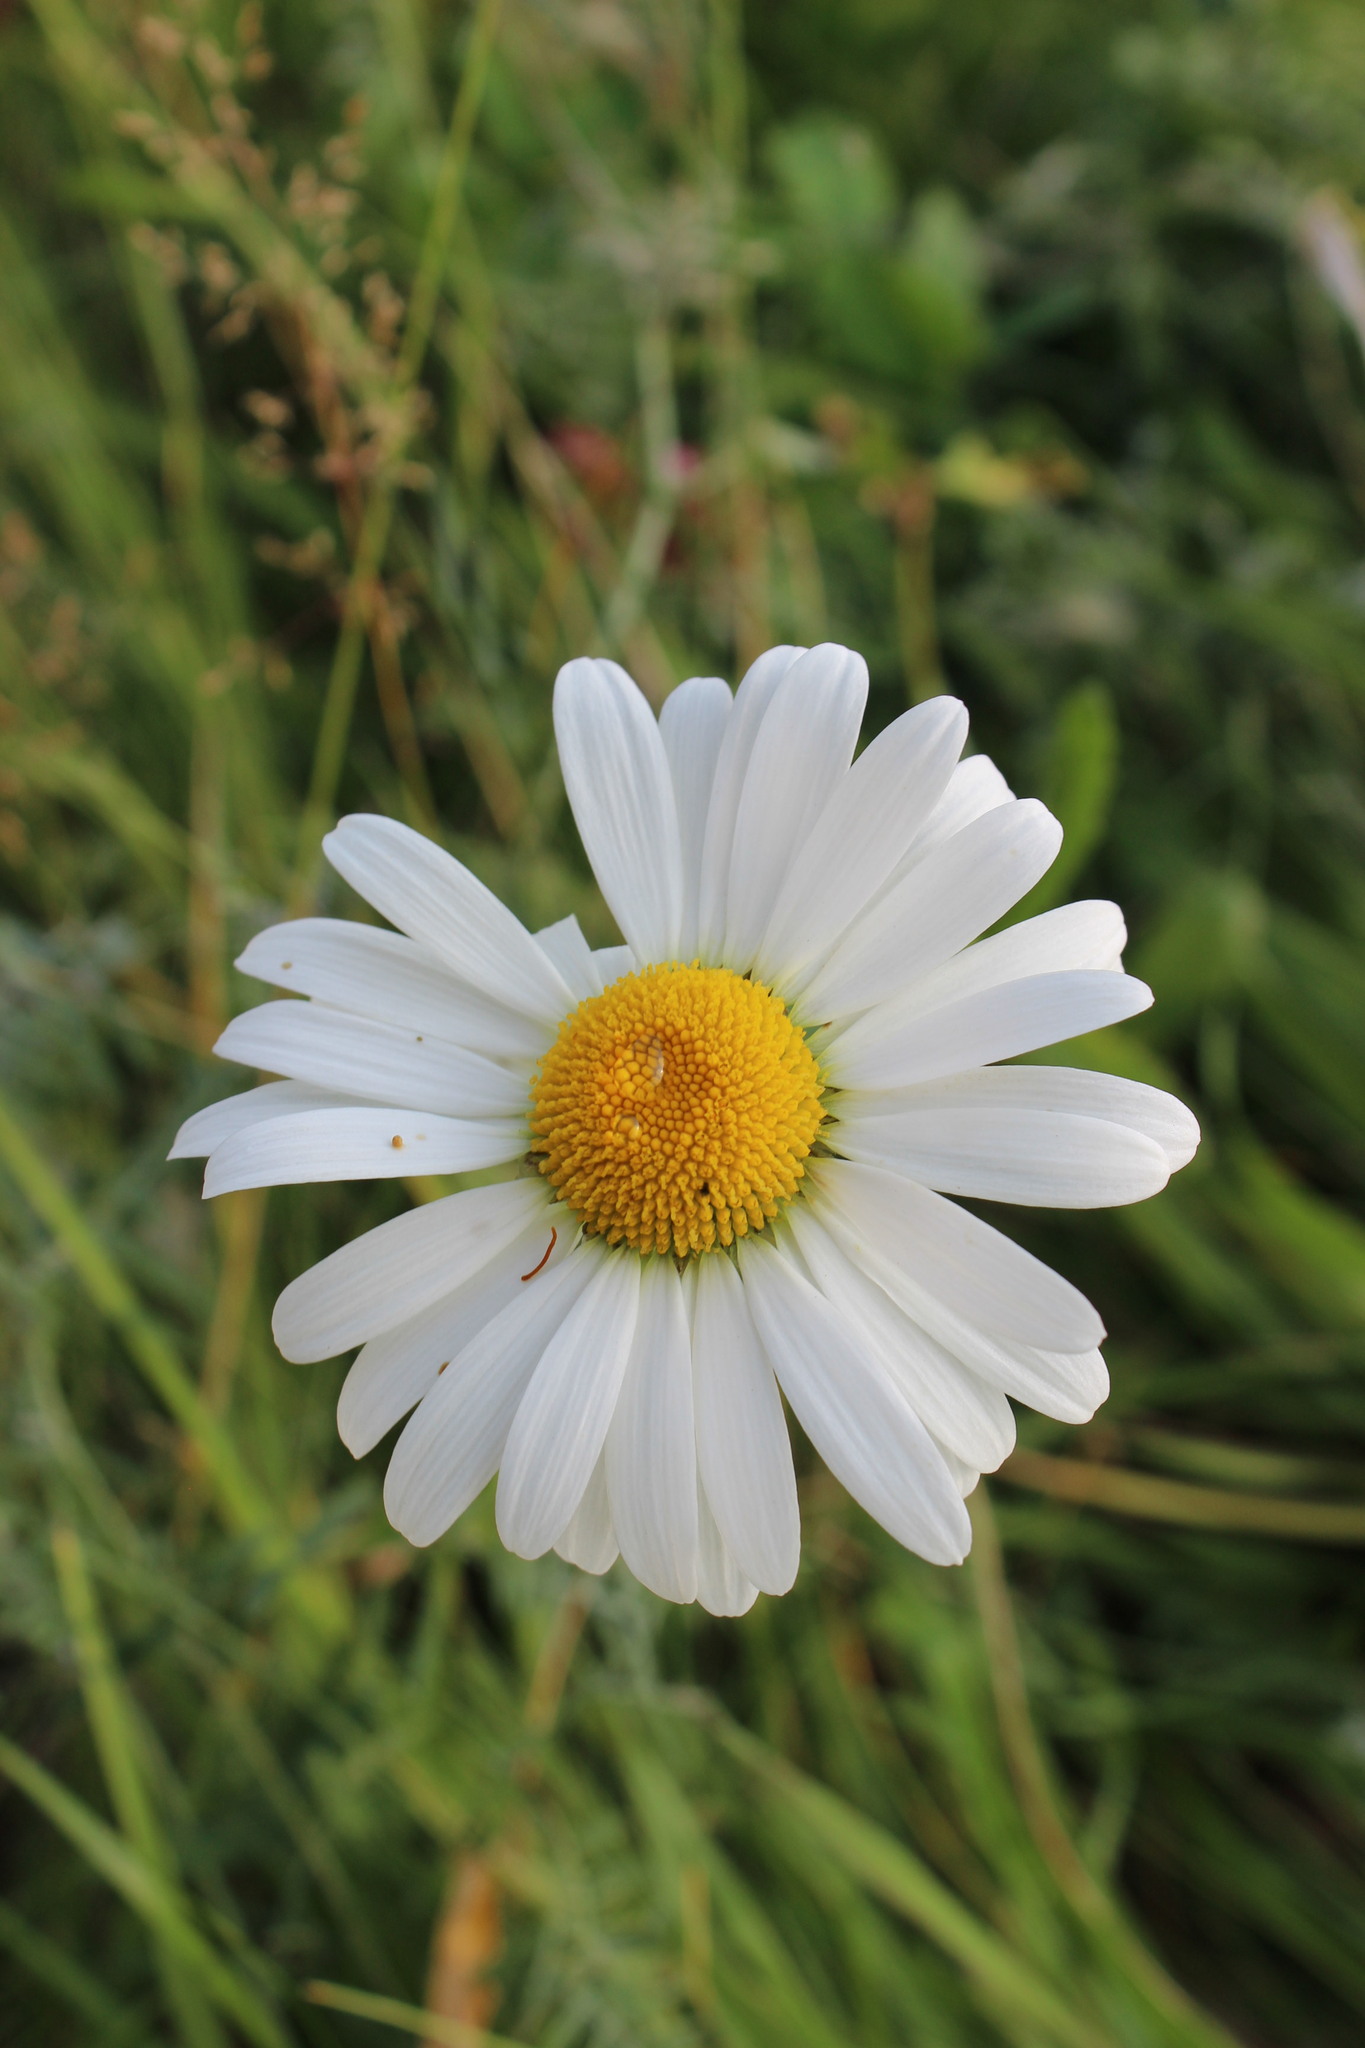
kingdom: Plantae
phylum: Tracheophyta
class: Magnoliopsida
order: Asterales
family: Asteraceae
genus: Leucanthemum
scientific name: Leucanthemum vulgare
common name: Oxeye daisy
